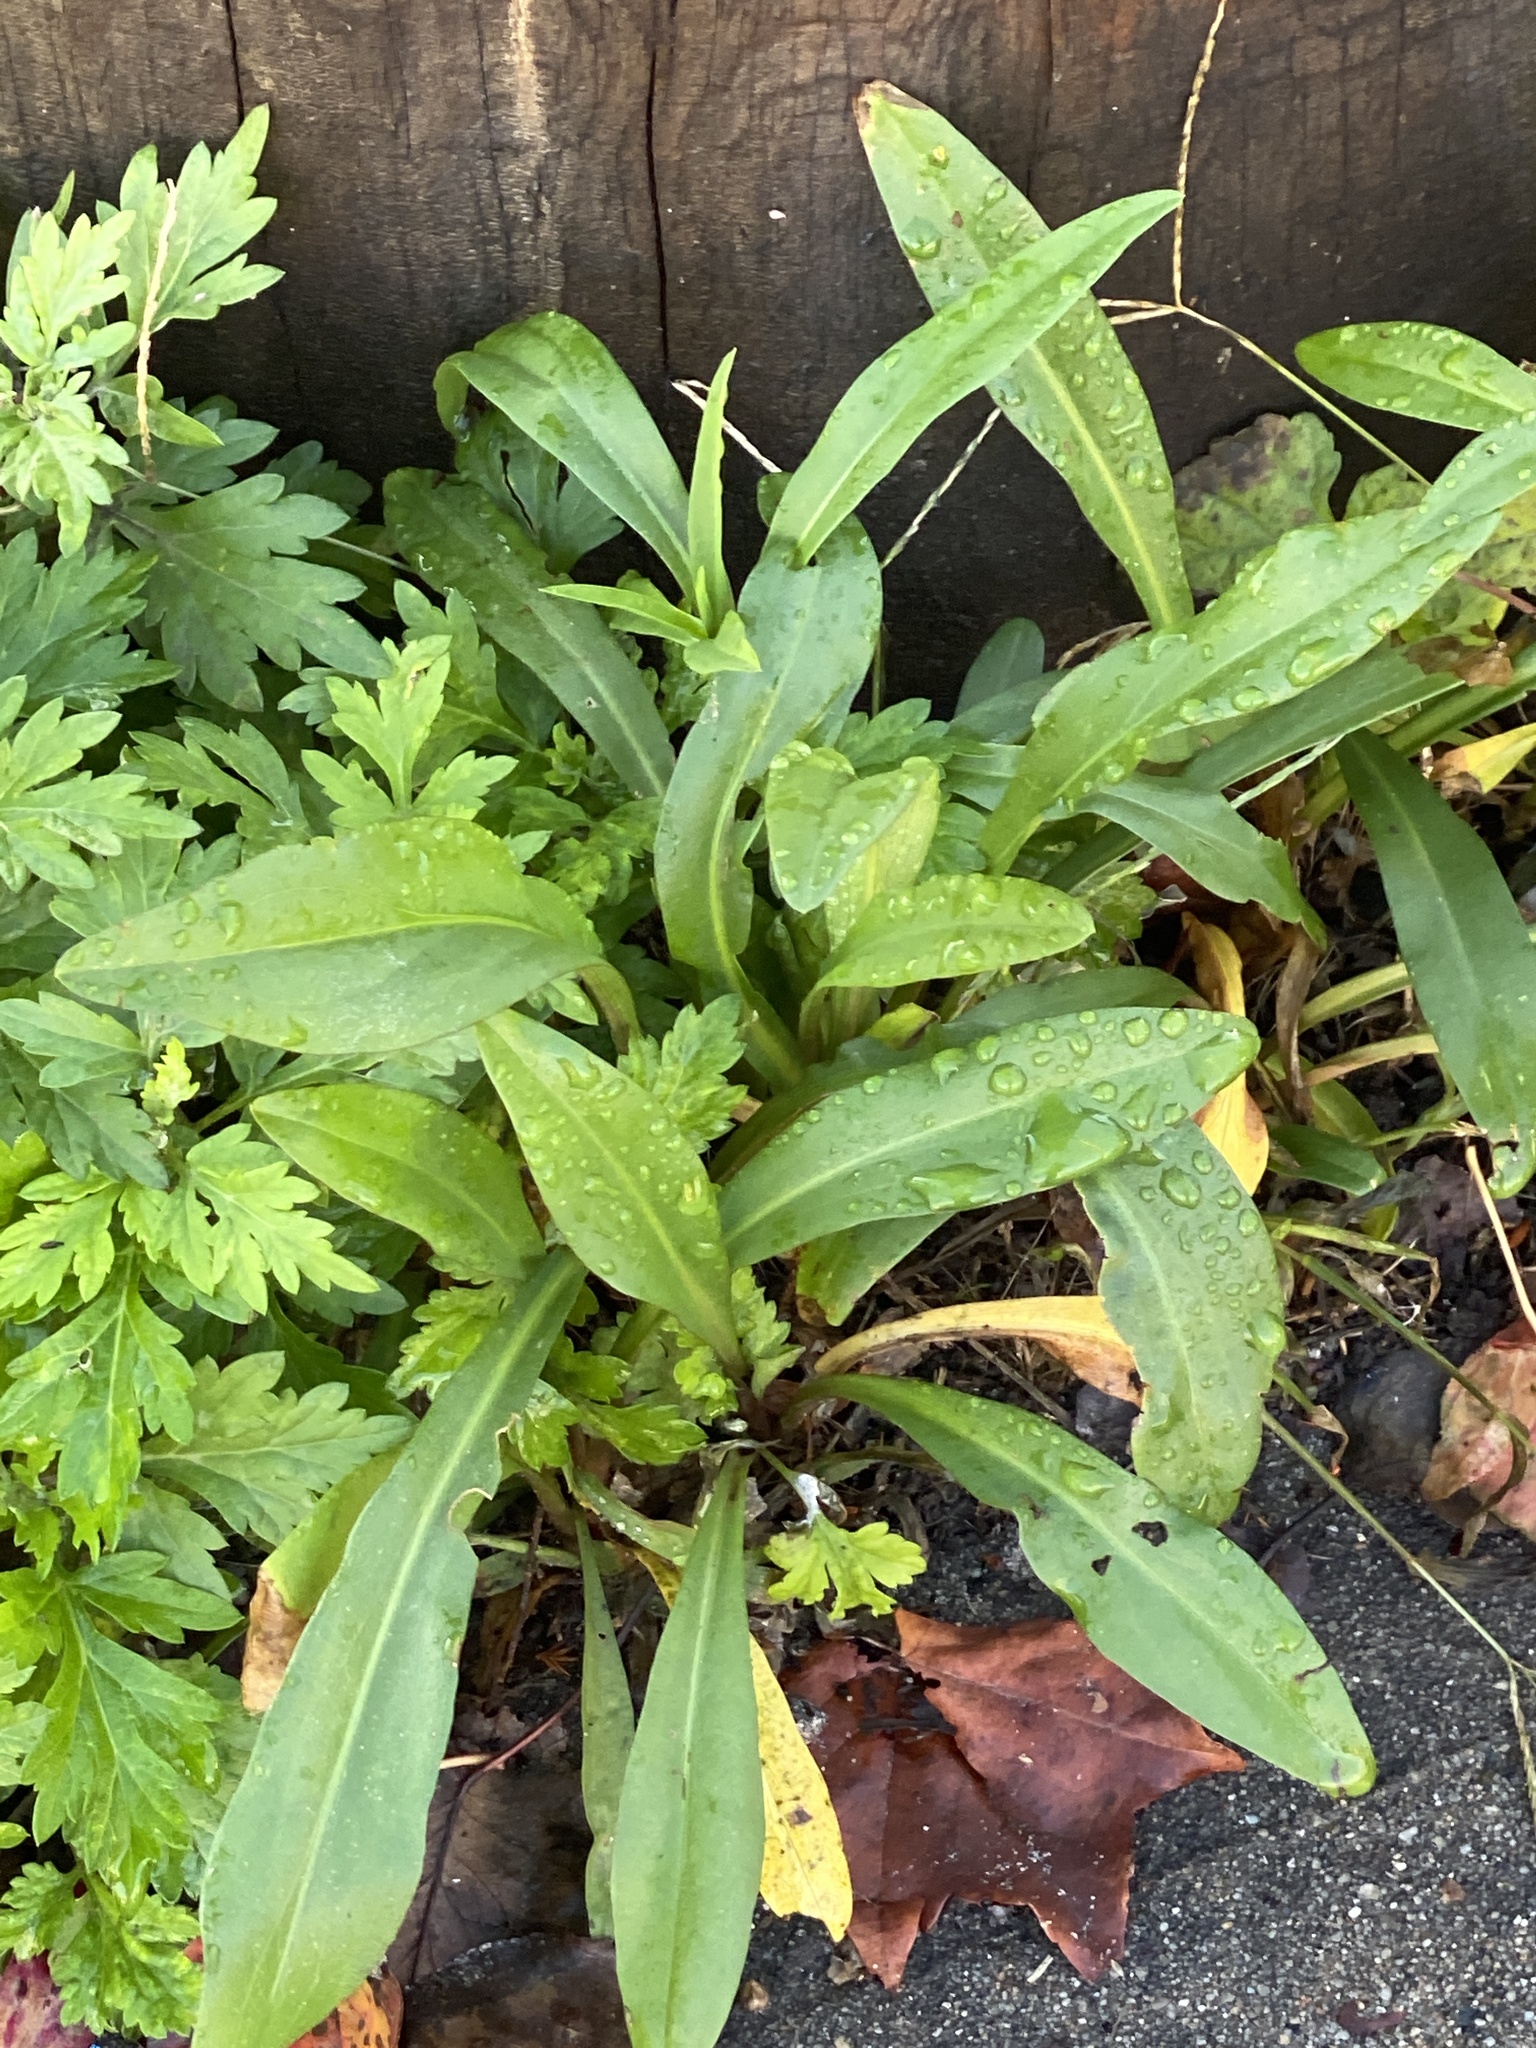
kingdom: Plantae
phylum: Tracheophyta
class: Magnoliopsida
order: Asterales
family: Asteraceae
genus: Solidago
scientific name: Solidago sempervirens
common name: Salt-marsh goldenrod
